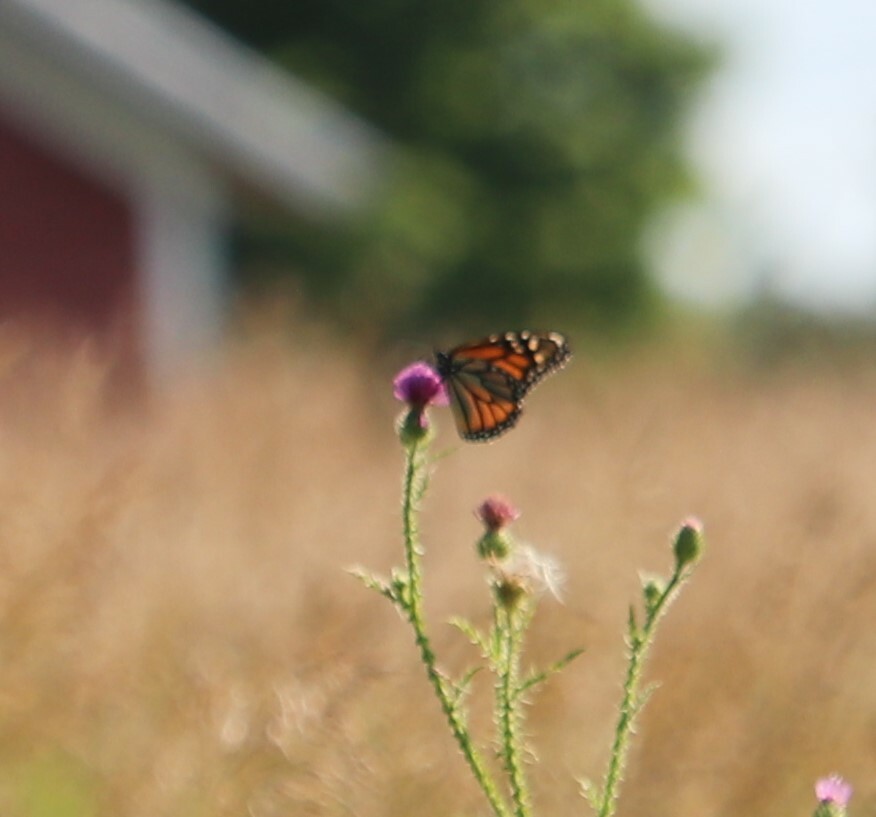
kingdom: Animalia
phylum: Arthropoda
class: Insecta
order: Lepidoptera
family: Nymphalidae
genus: Danaus
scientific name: Danaus plexippus
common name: Monarch
